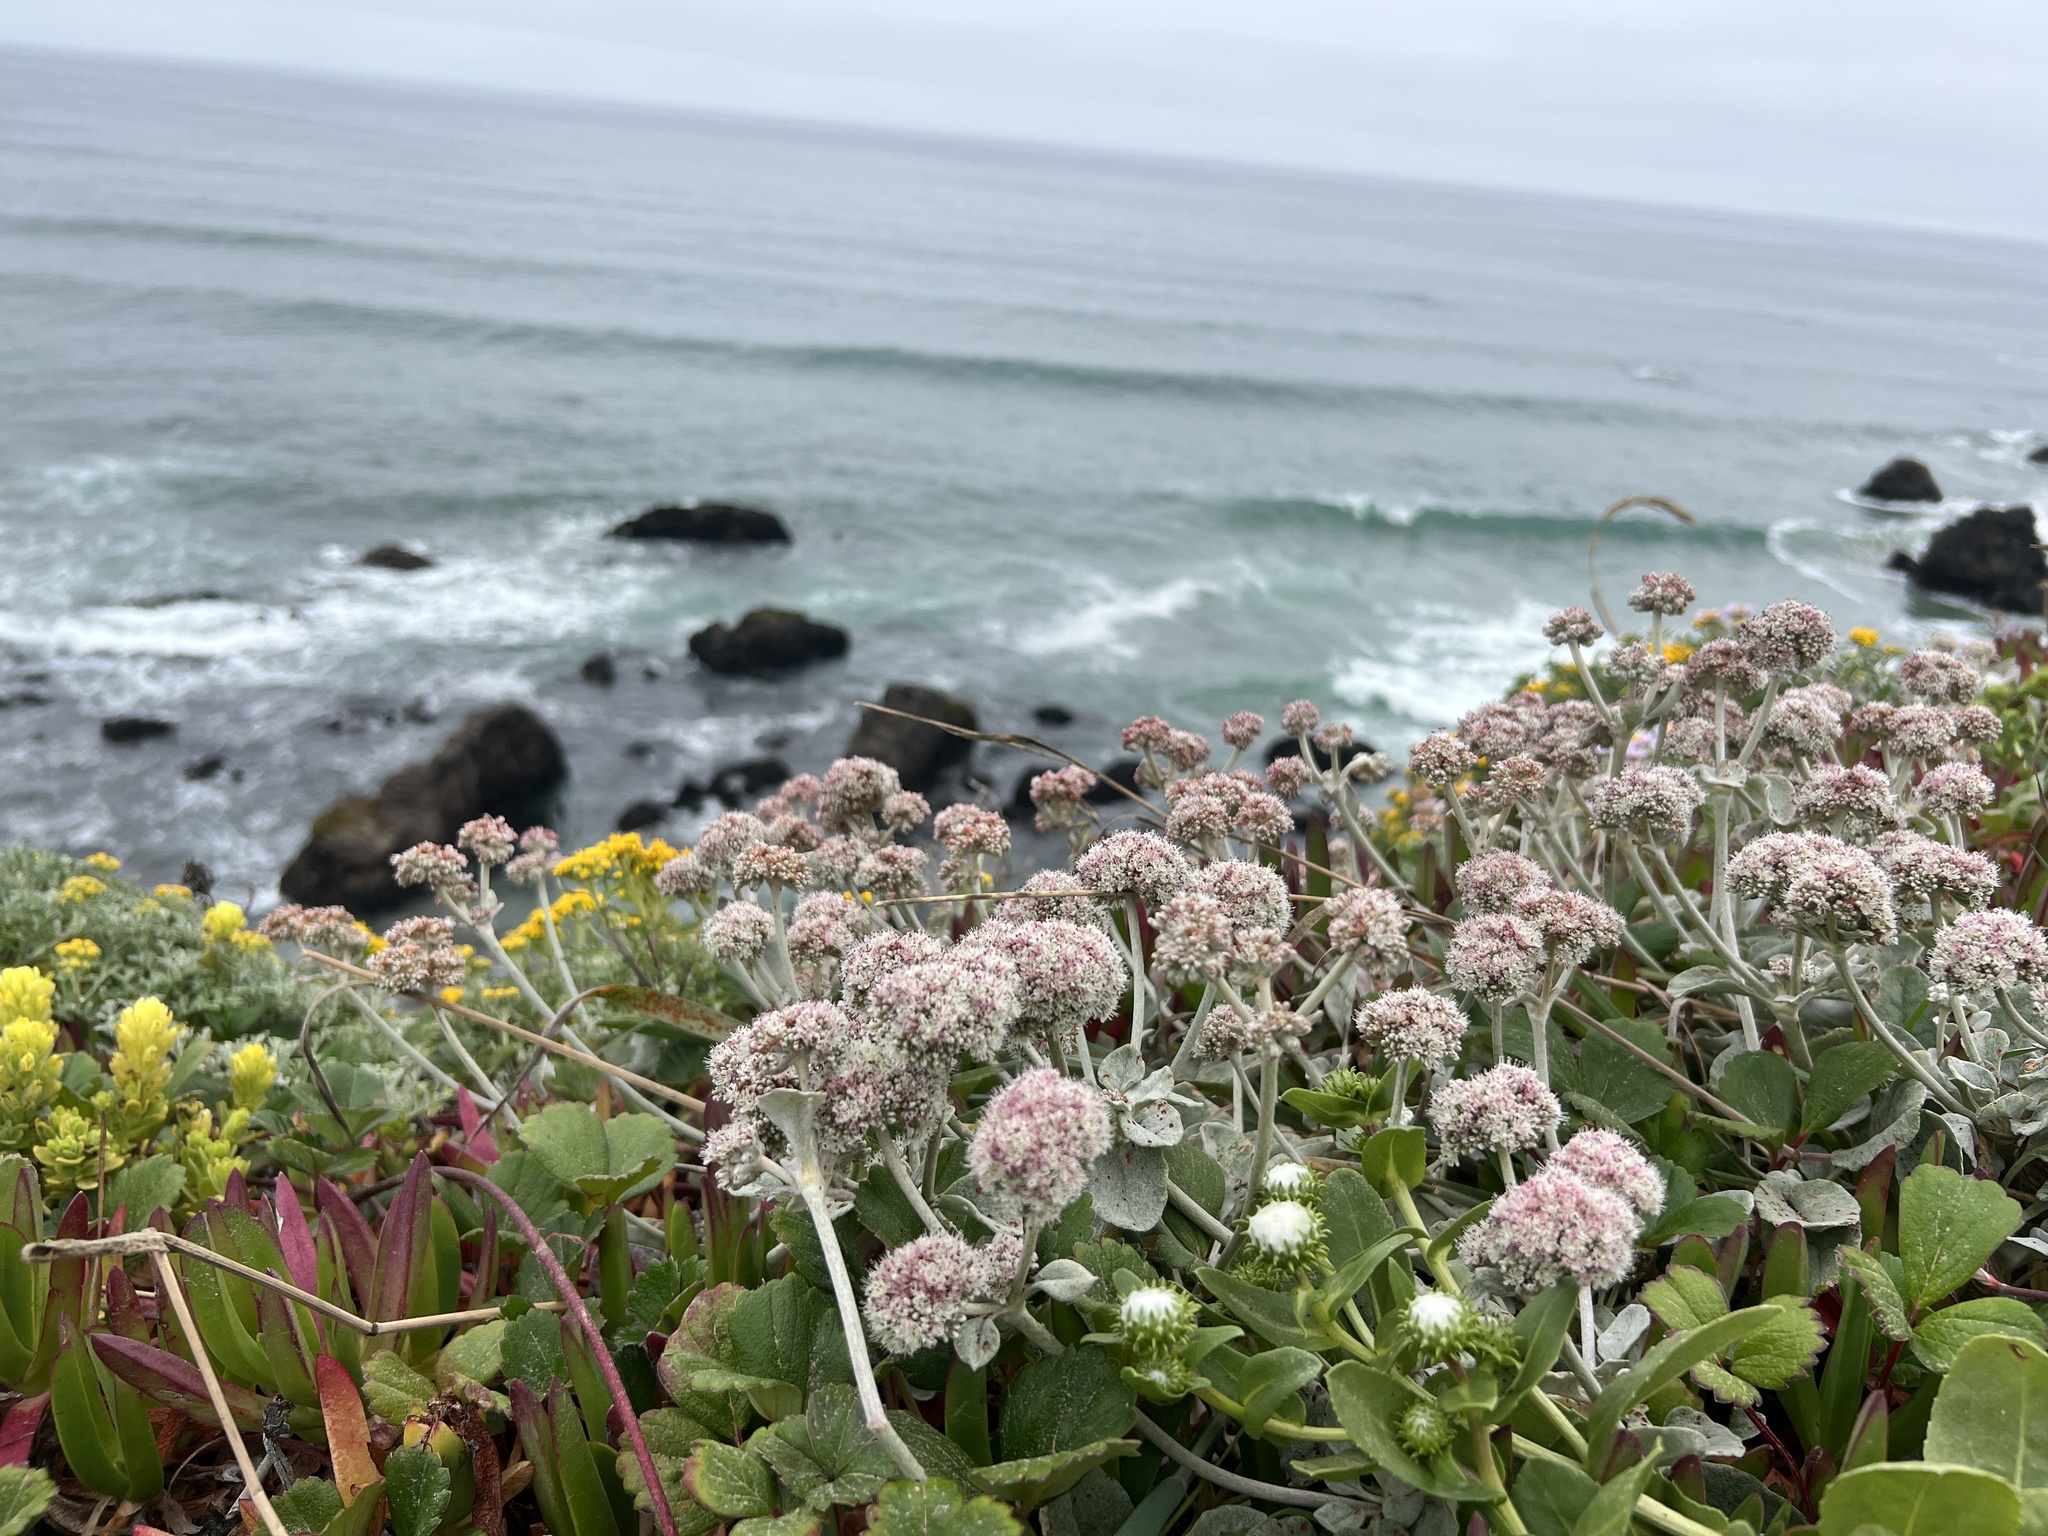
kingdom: Plantae
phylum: Tracheophyta
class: Magnoliopsida
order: Caryophyllales
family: Polygonaceae
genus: Eriogonum
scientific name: Eriogonum latifolium
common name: Seaside wild buckwheat
